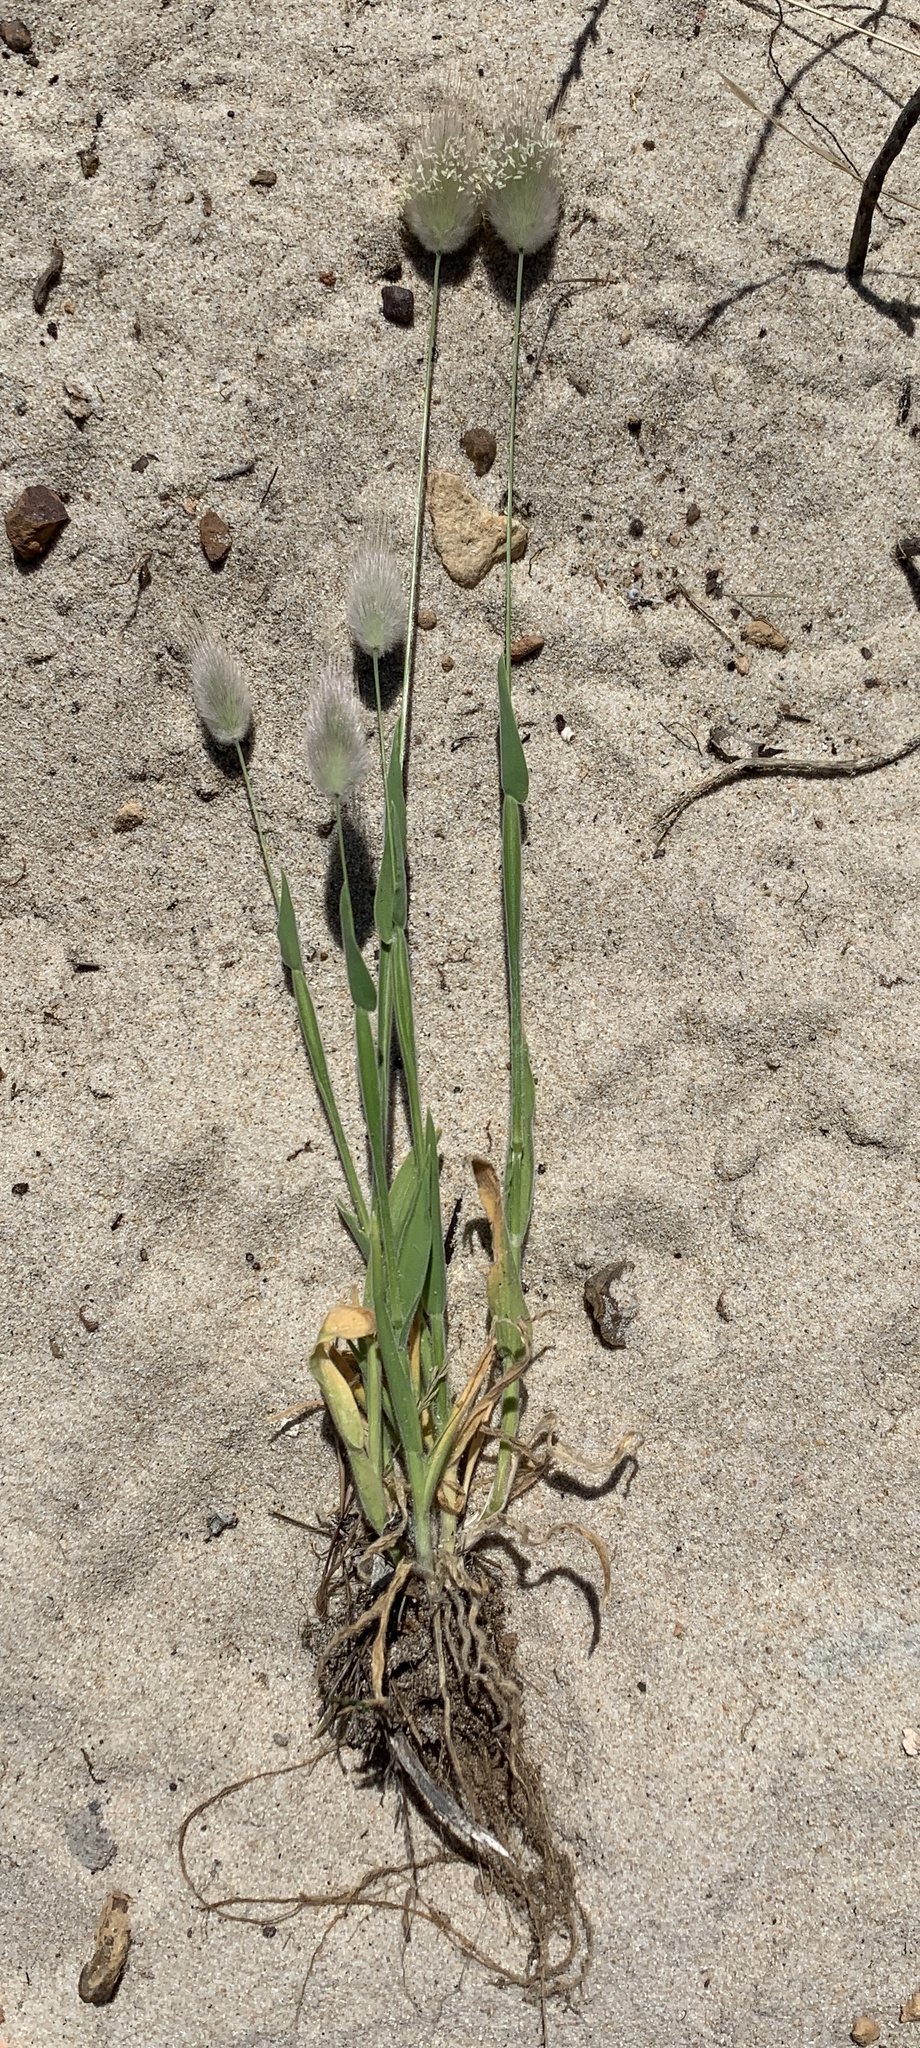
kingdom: Plantae
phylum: Tracheophyta
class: Liliopsida
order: Poales
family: Poaceae
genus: Lagurus
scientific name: Lagurus ovatus
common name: Hare's-tail
